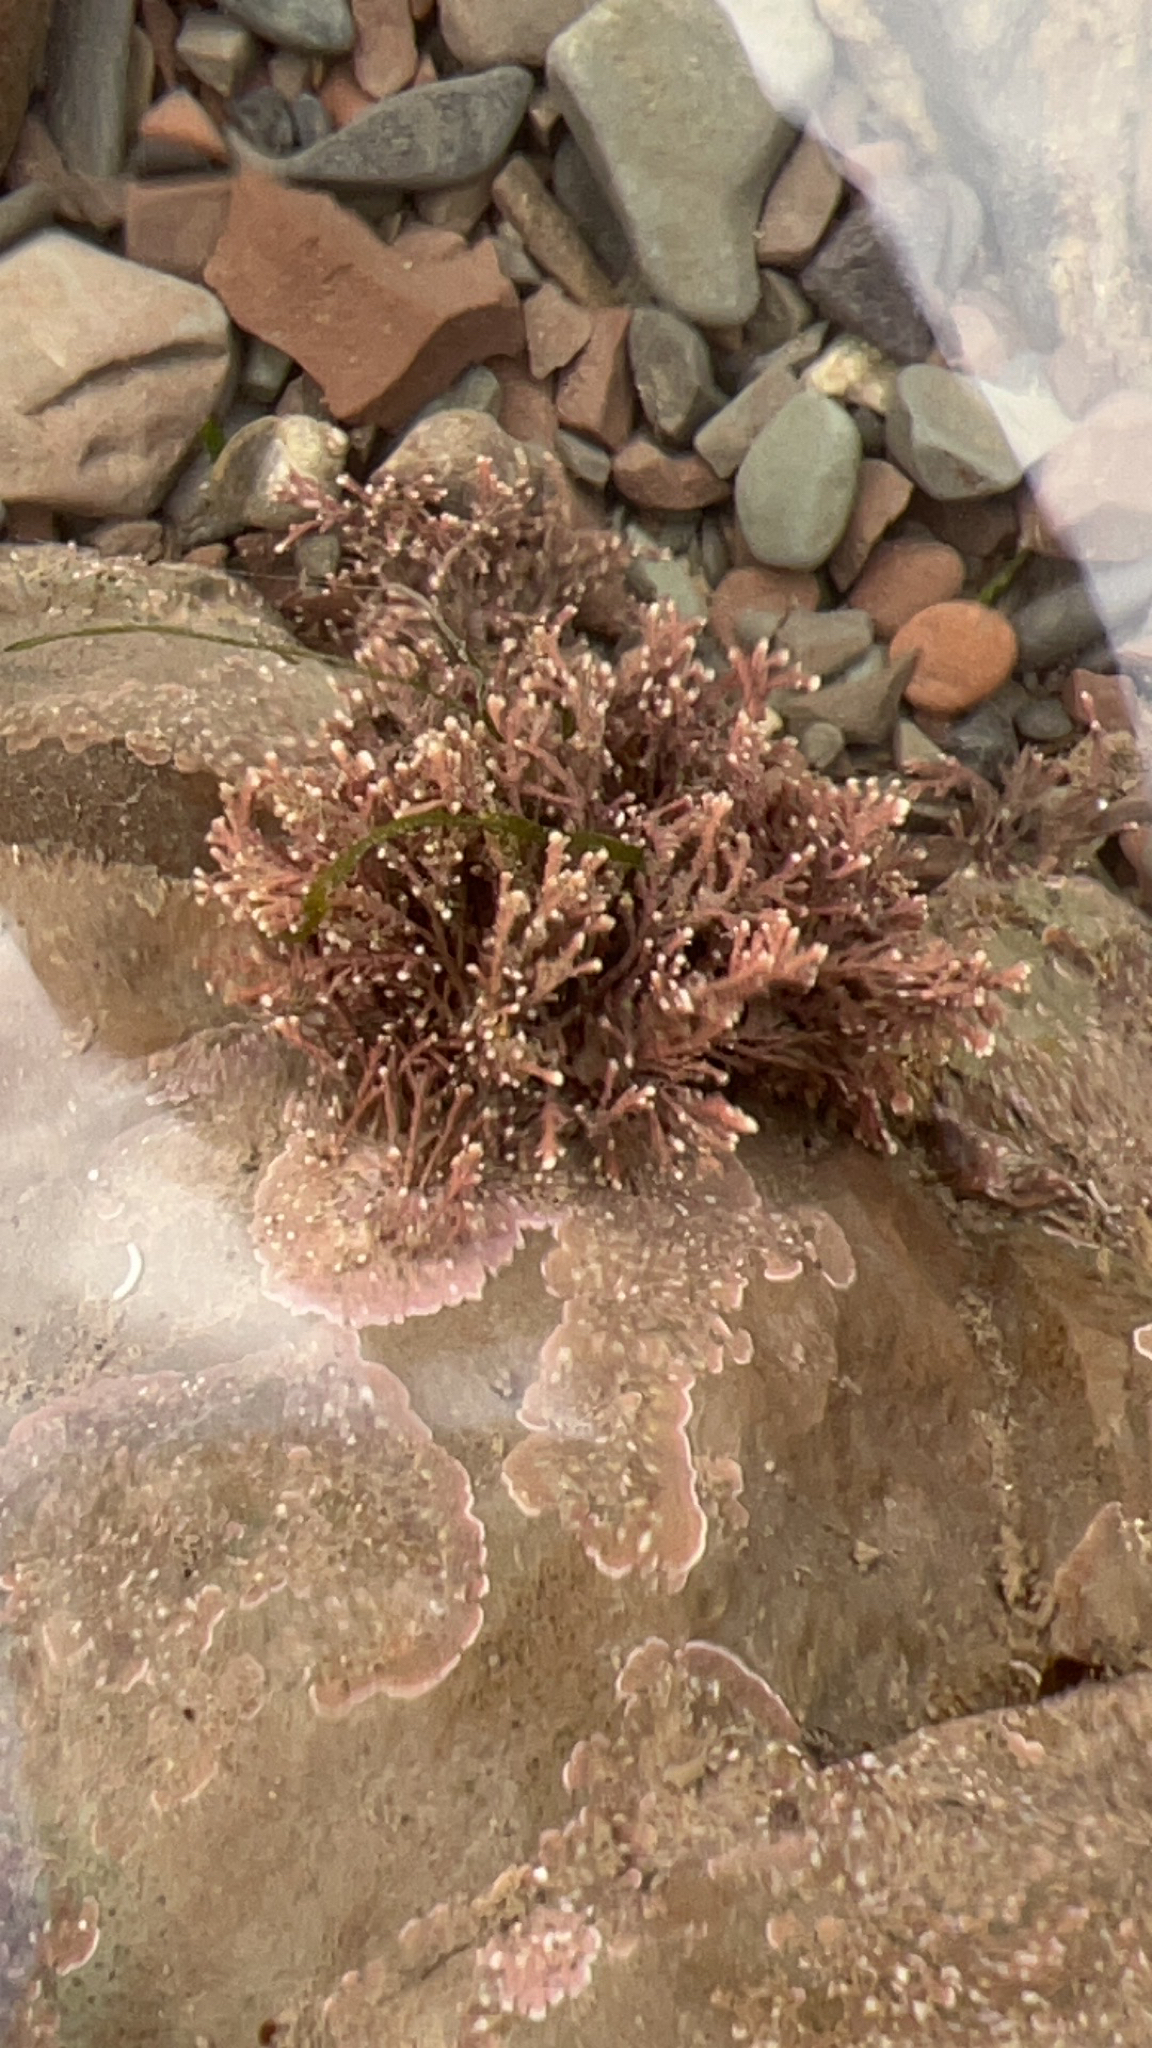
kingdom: Plantae
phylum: Rhodophyta
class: Florideophyceae
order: Corallinales
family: Corallinaceae
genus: Corallina
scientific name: Corallina officinalis
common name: Coral weed
